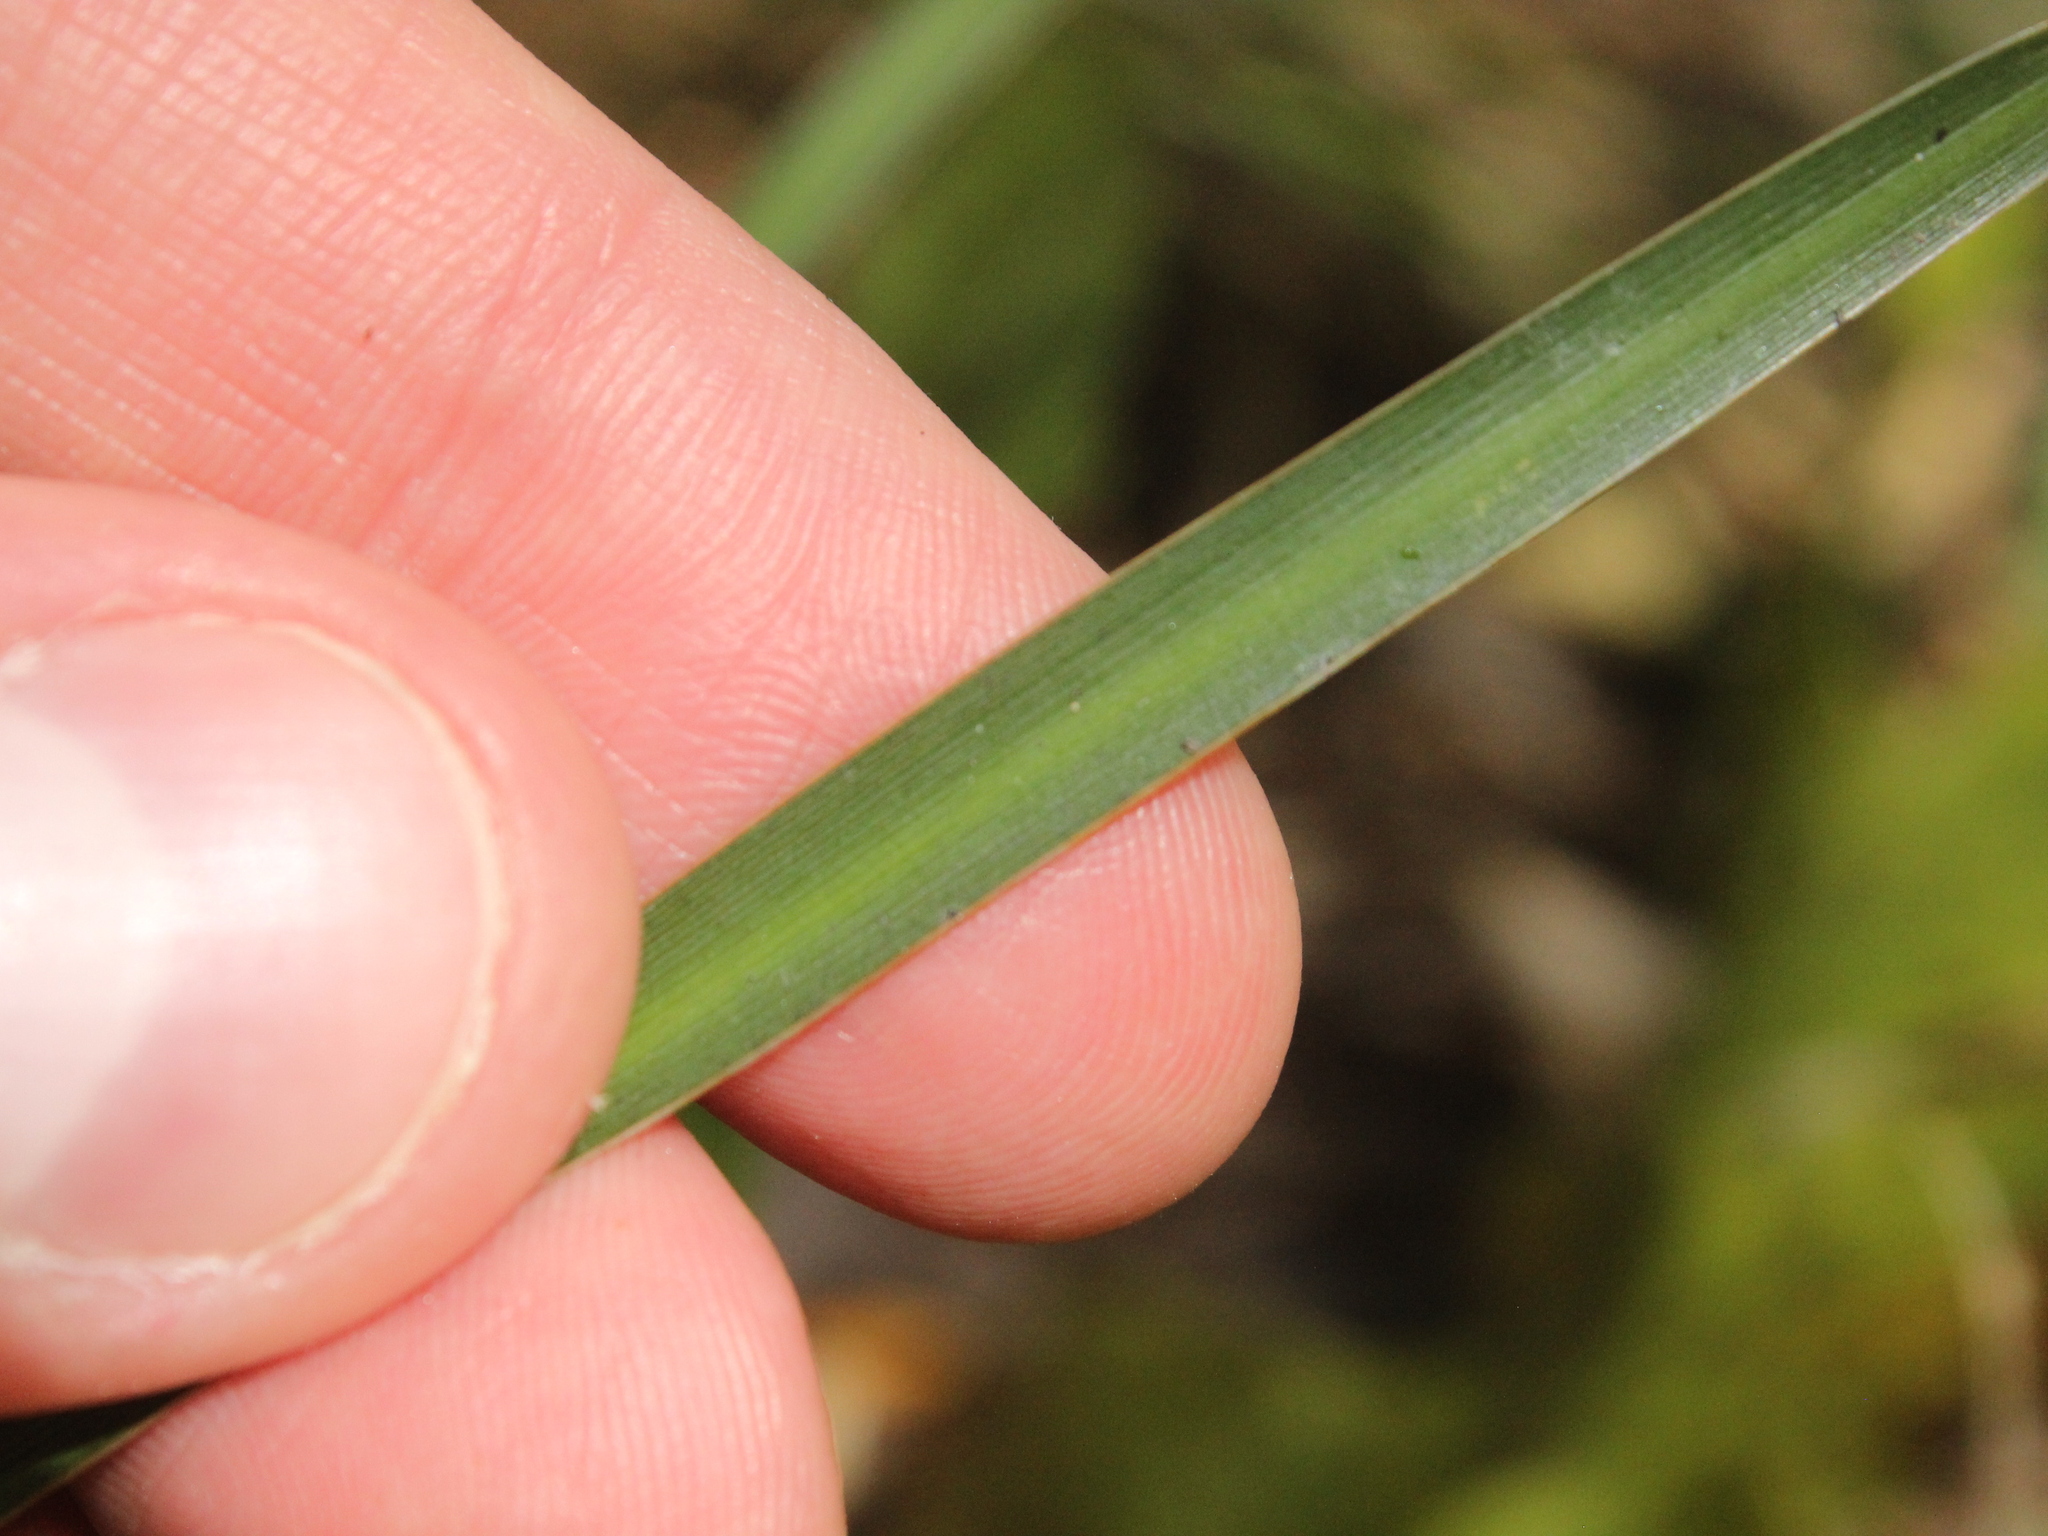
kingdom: Plantae
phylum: Tracheophyta
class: Liliopsida
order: Asparagales
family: Iridaceae
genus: Libertia
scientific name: Libertia edgariae
